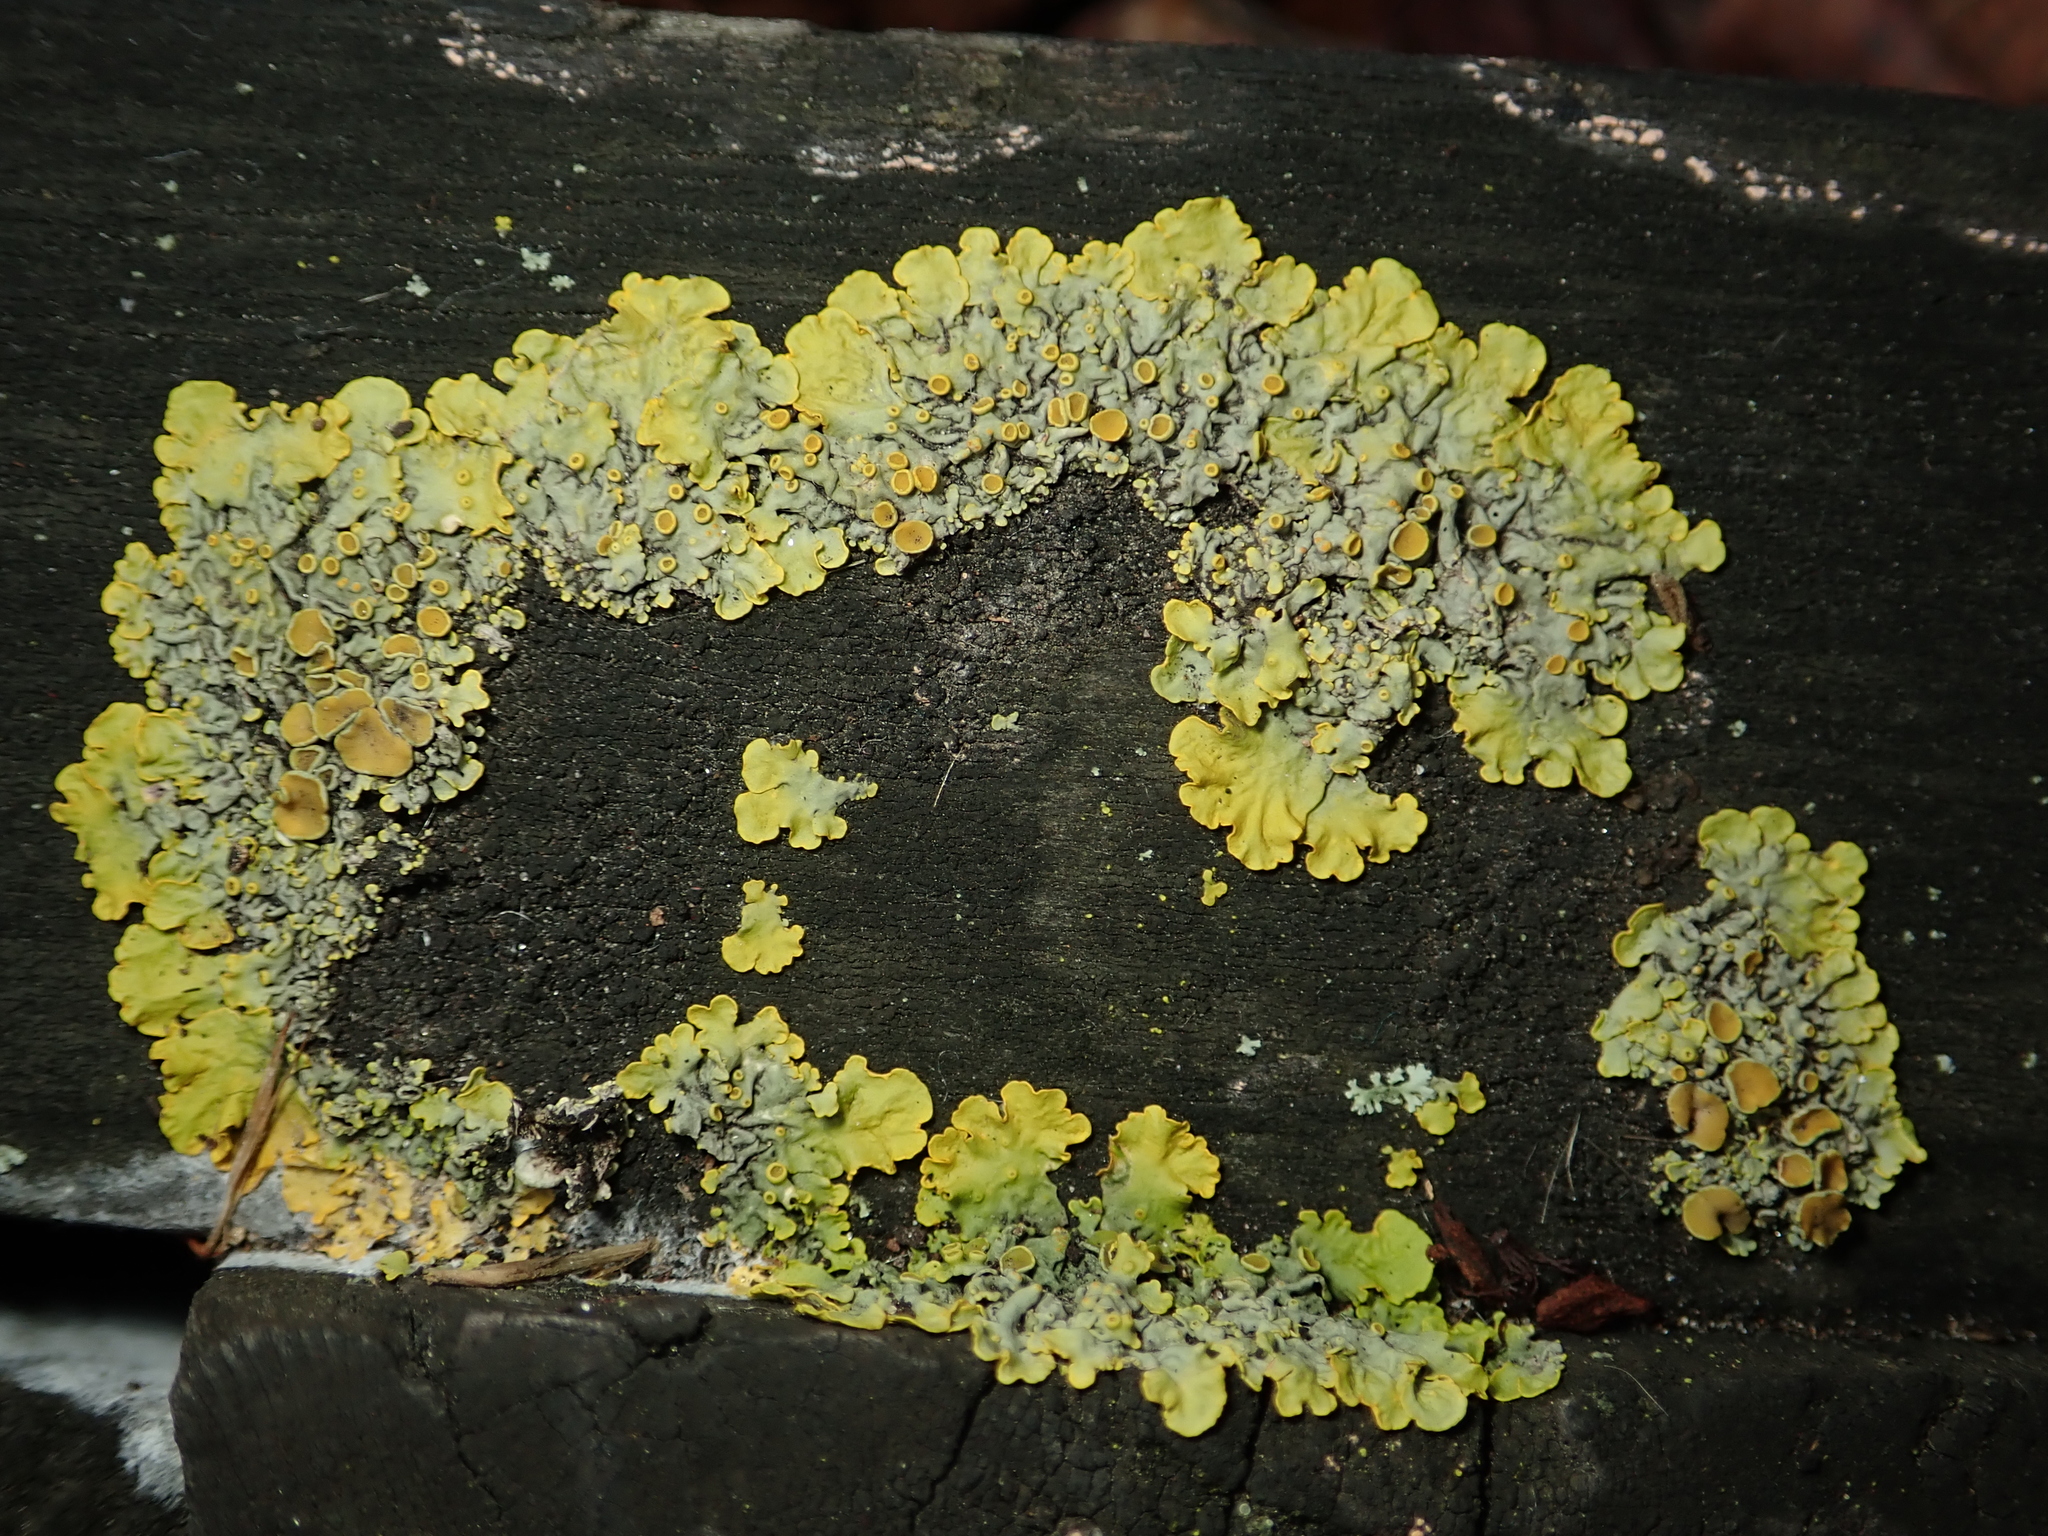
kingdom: Fungi
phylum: Ascomycota
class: Lecanoromycetes
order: Teloschistales
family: Teloschistaceae
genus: Xanthoria
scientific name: Xanthoria parietina
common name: Common orange lichen
